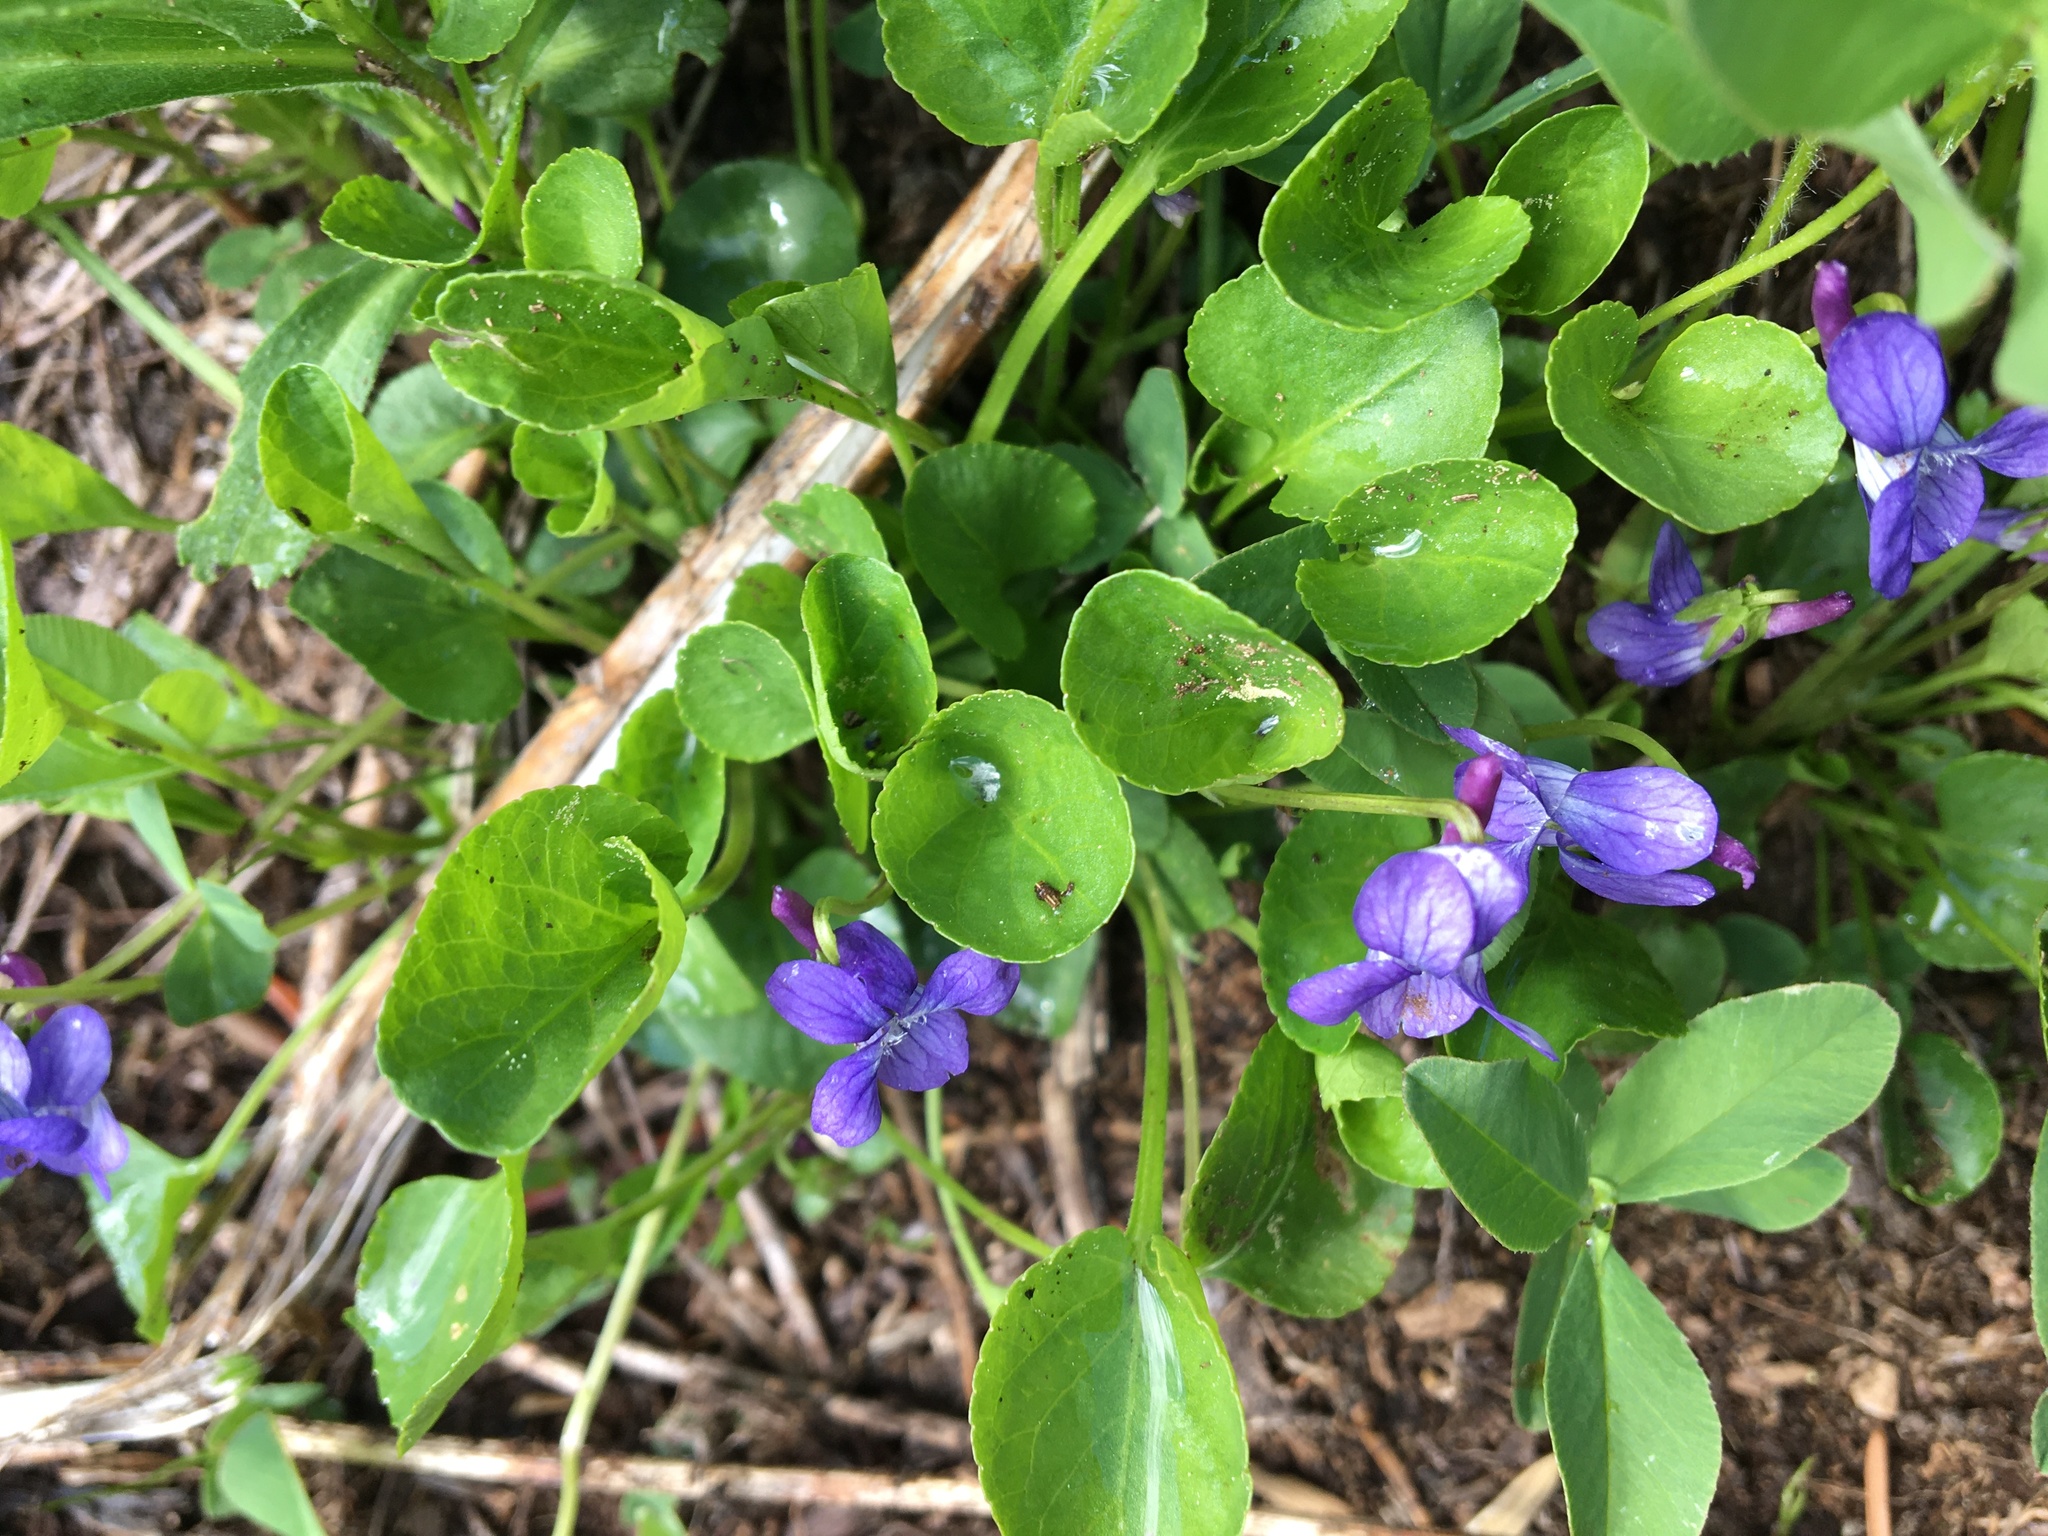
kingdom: Plantae
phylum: Tracheophyta
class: Magnoliopsida
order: Malpighiales
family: Violaceae
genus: Viola
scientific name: Viola adunca
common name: Sand violet
